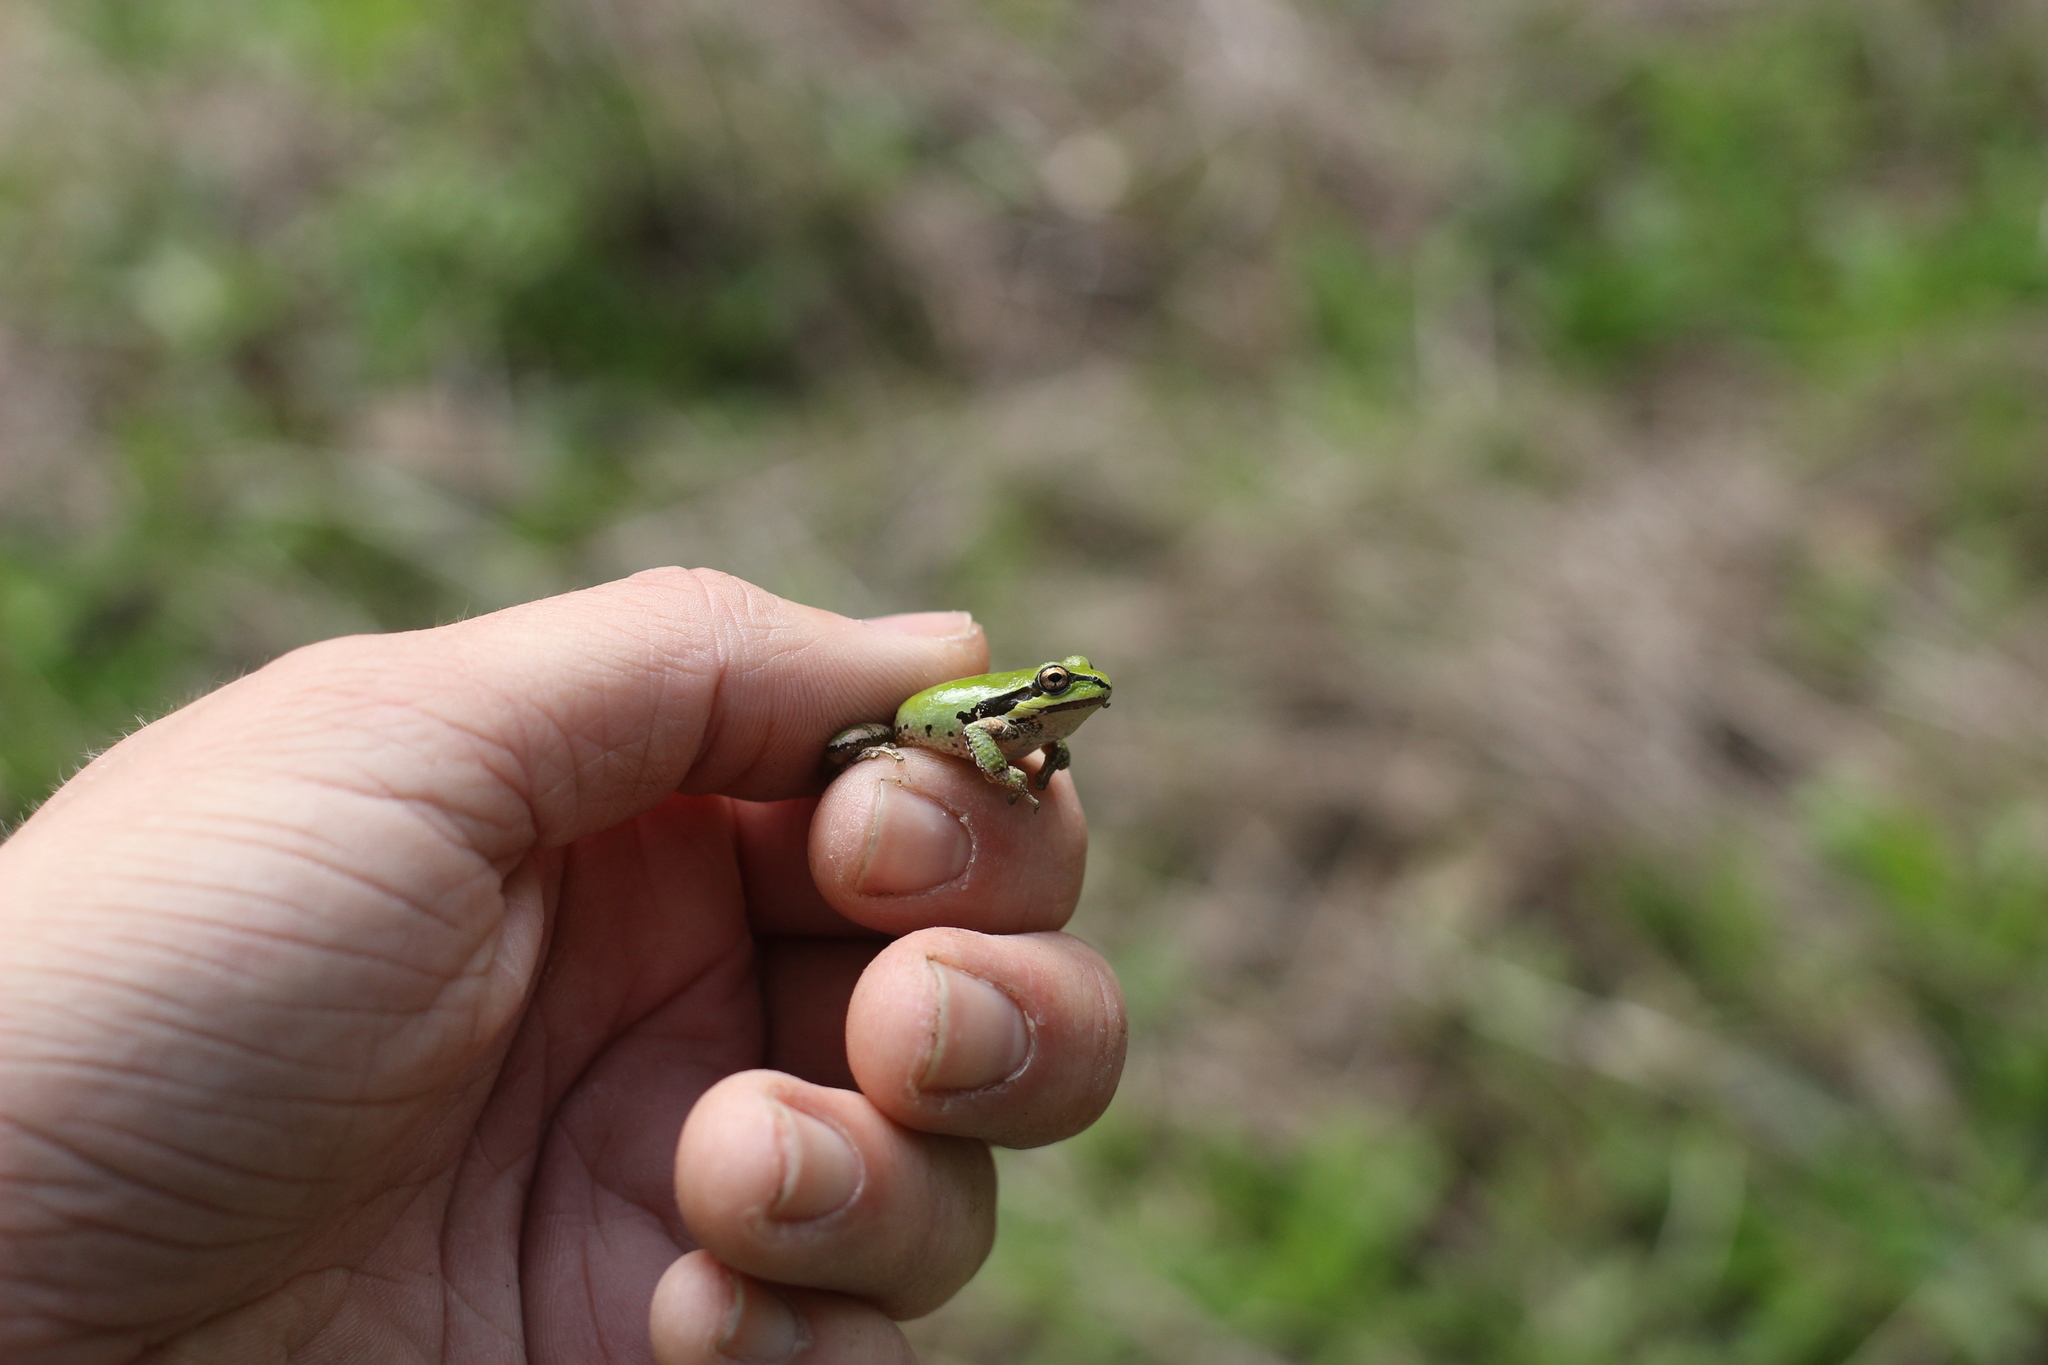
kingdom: Animalia
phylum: Chordata
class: Amphibia
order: Anura
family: Hylidae
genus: Pseudacris
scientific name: Pseudacris regilla
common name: Pacific chorus frog
